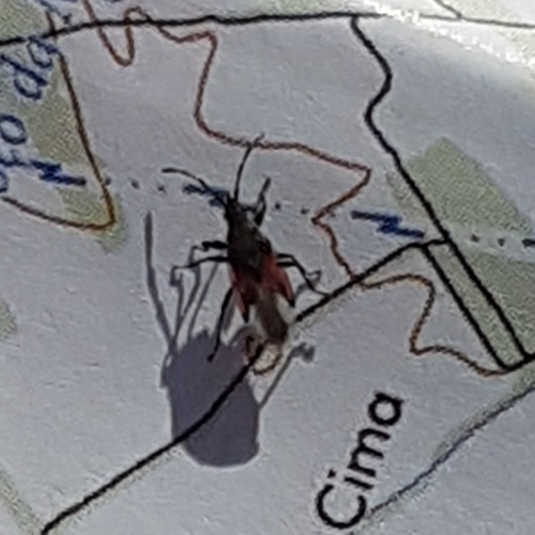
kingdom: Animalia
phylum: Arthropoda
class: Insecta
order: Hemiptera
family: Oxycarenidae
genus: Oxycarenus
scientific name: Oxycarenus lavaterae
